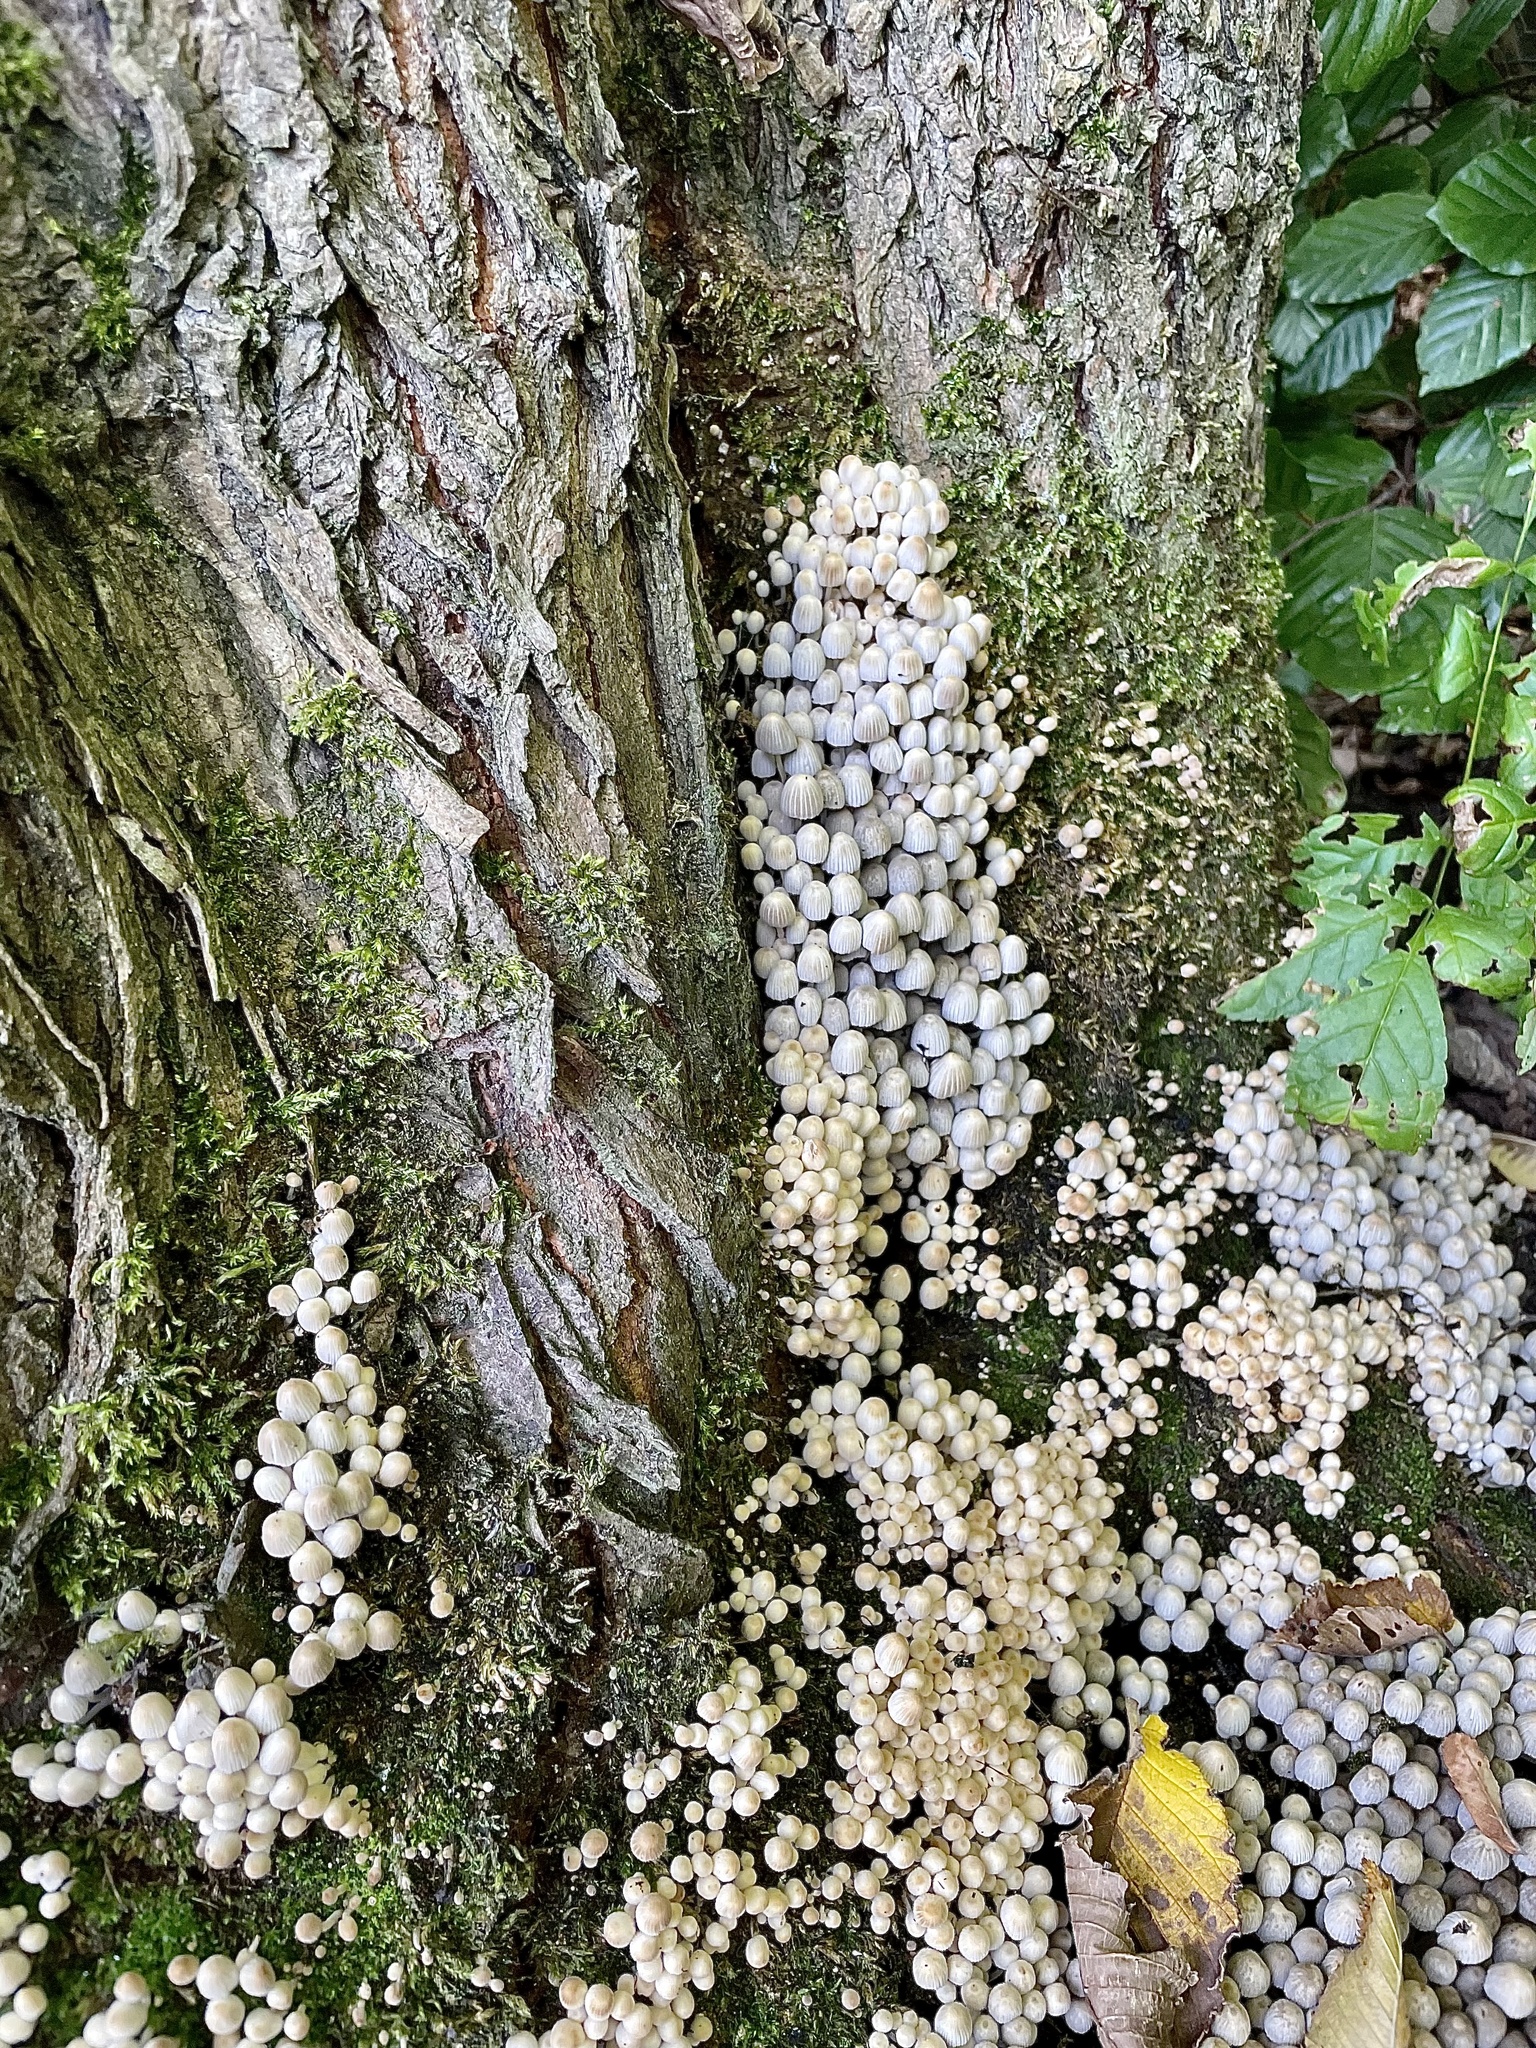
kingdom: Fungi
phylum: Basidiomycota
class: Agaricomycetes
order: Agaricales
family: Psathyrellaceae
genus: Coprinellus
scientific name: Coprinellus disseminatus
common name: Fairies' bonnets
